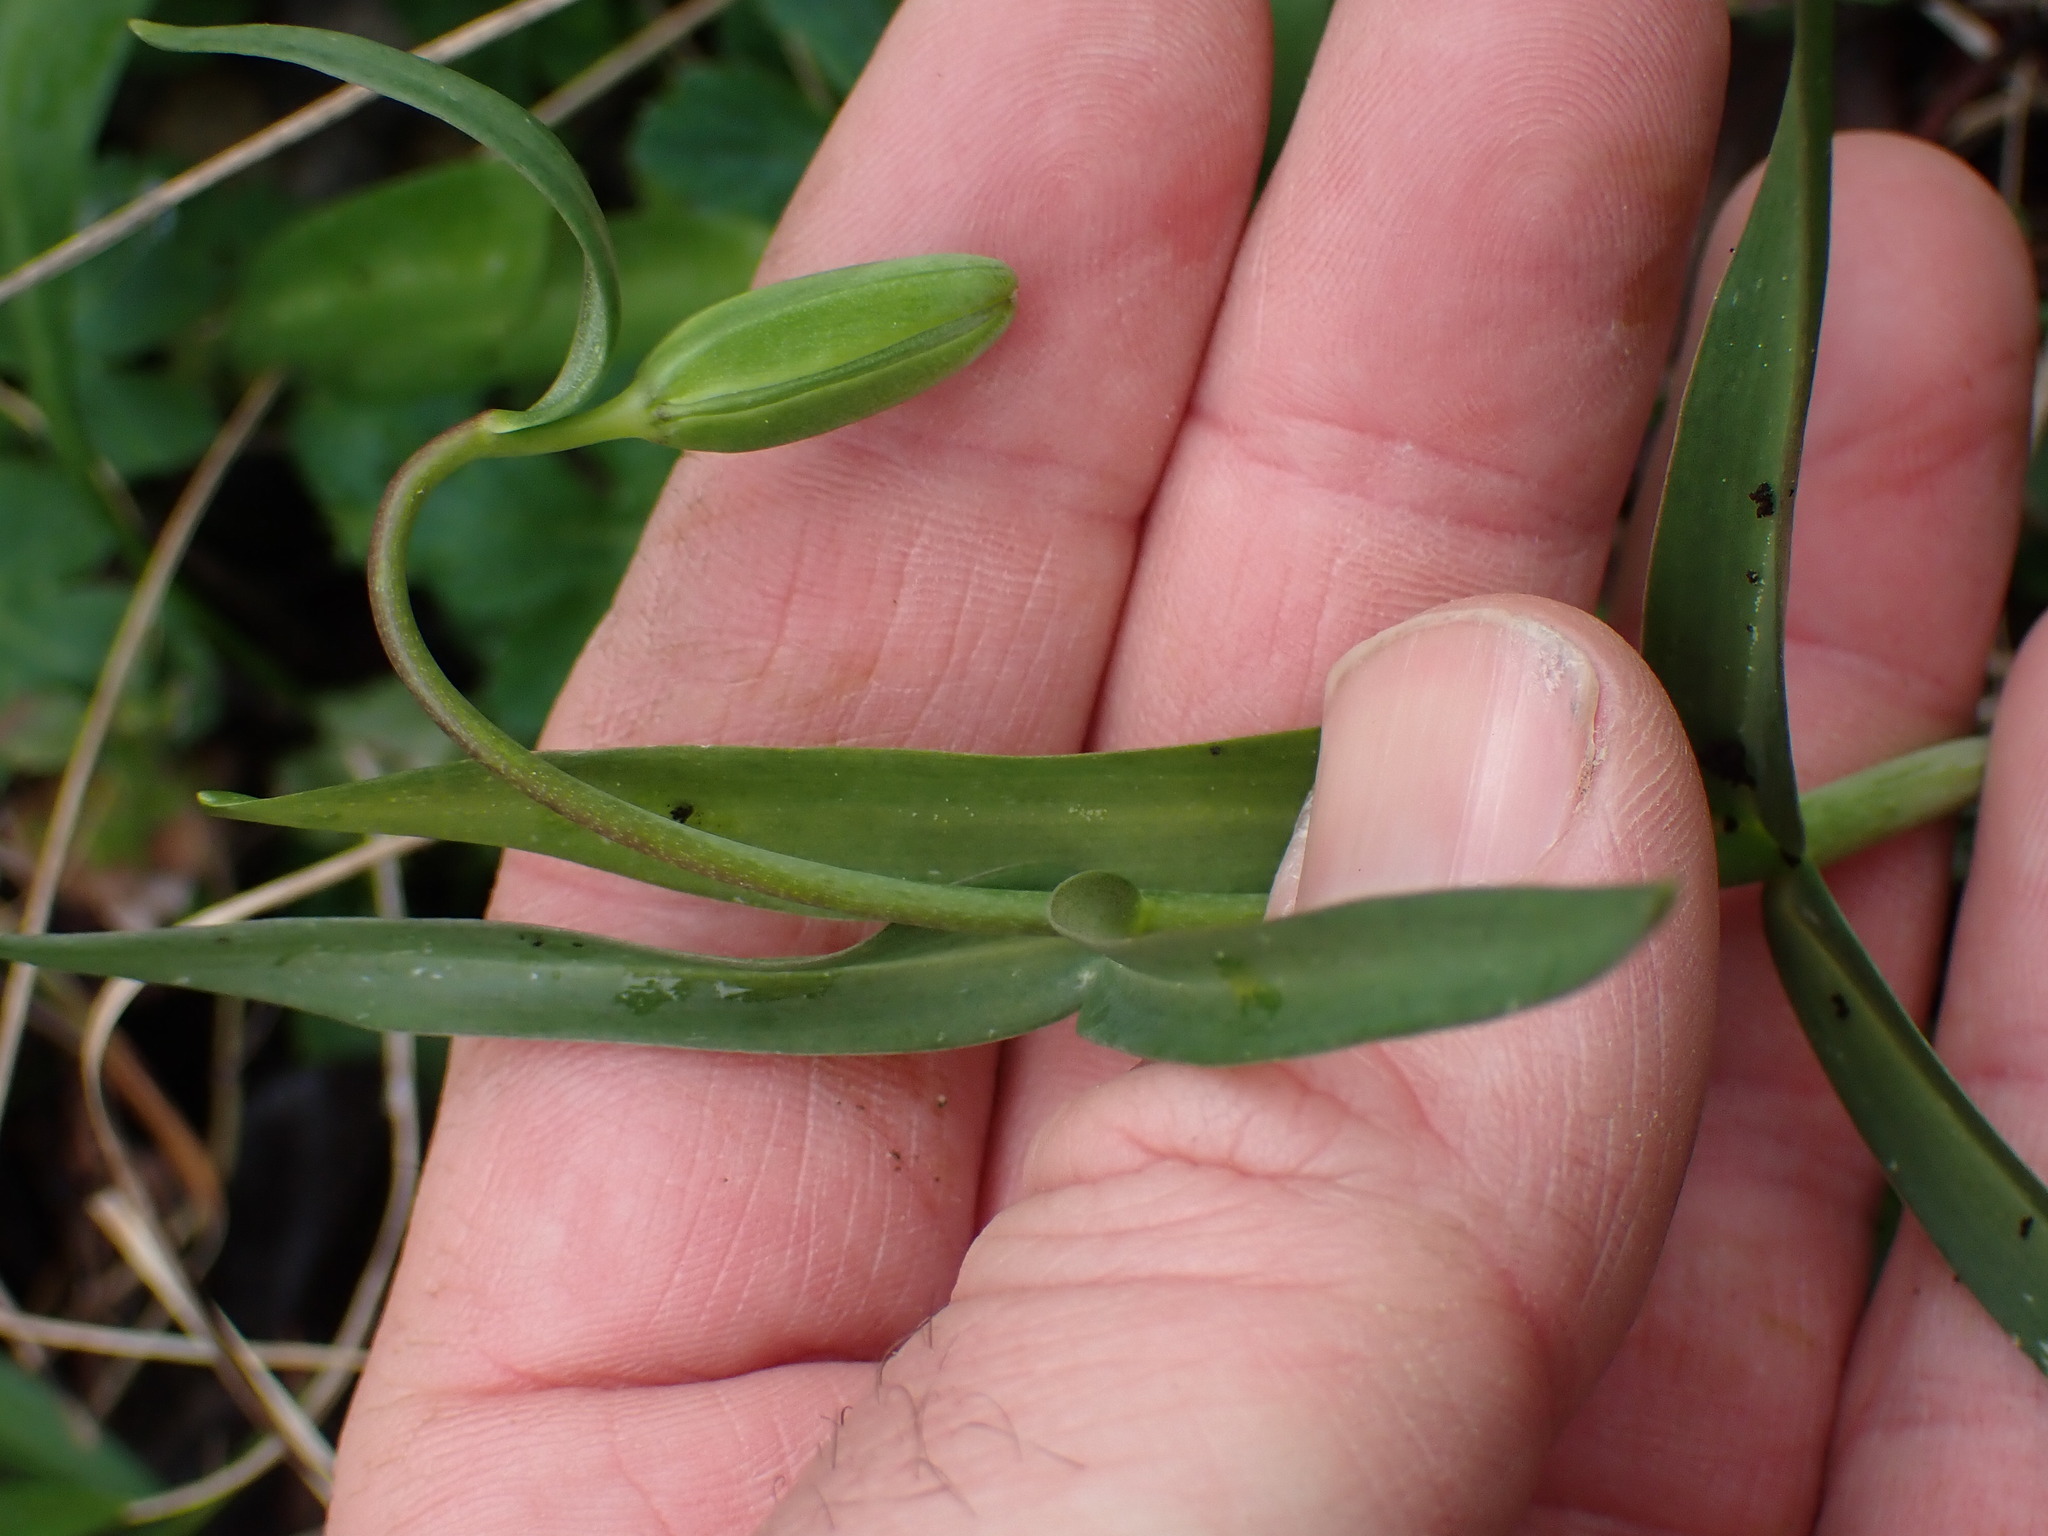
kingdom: Plantae
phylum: Tracheophyta
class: Liliopsida
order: Liliales
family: Liliaceae
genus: Fritillaria
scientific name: Fritillaria affinis
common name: Ojai fritillary
